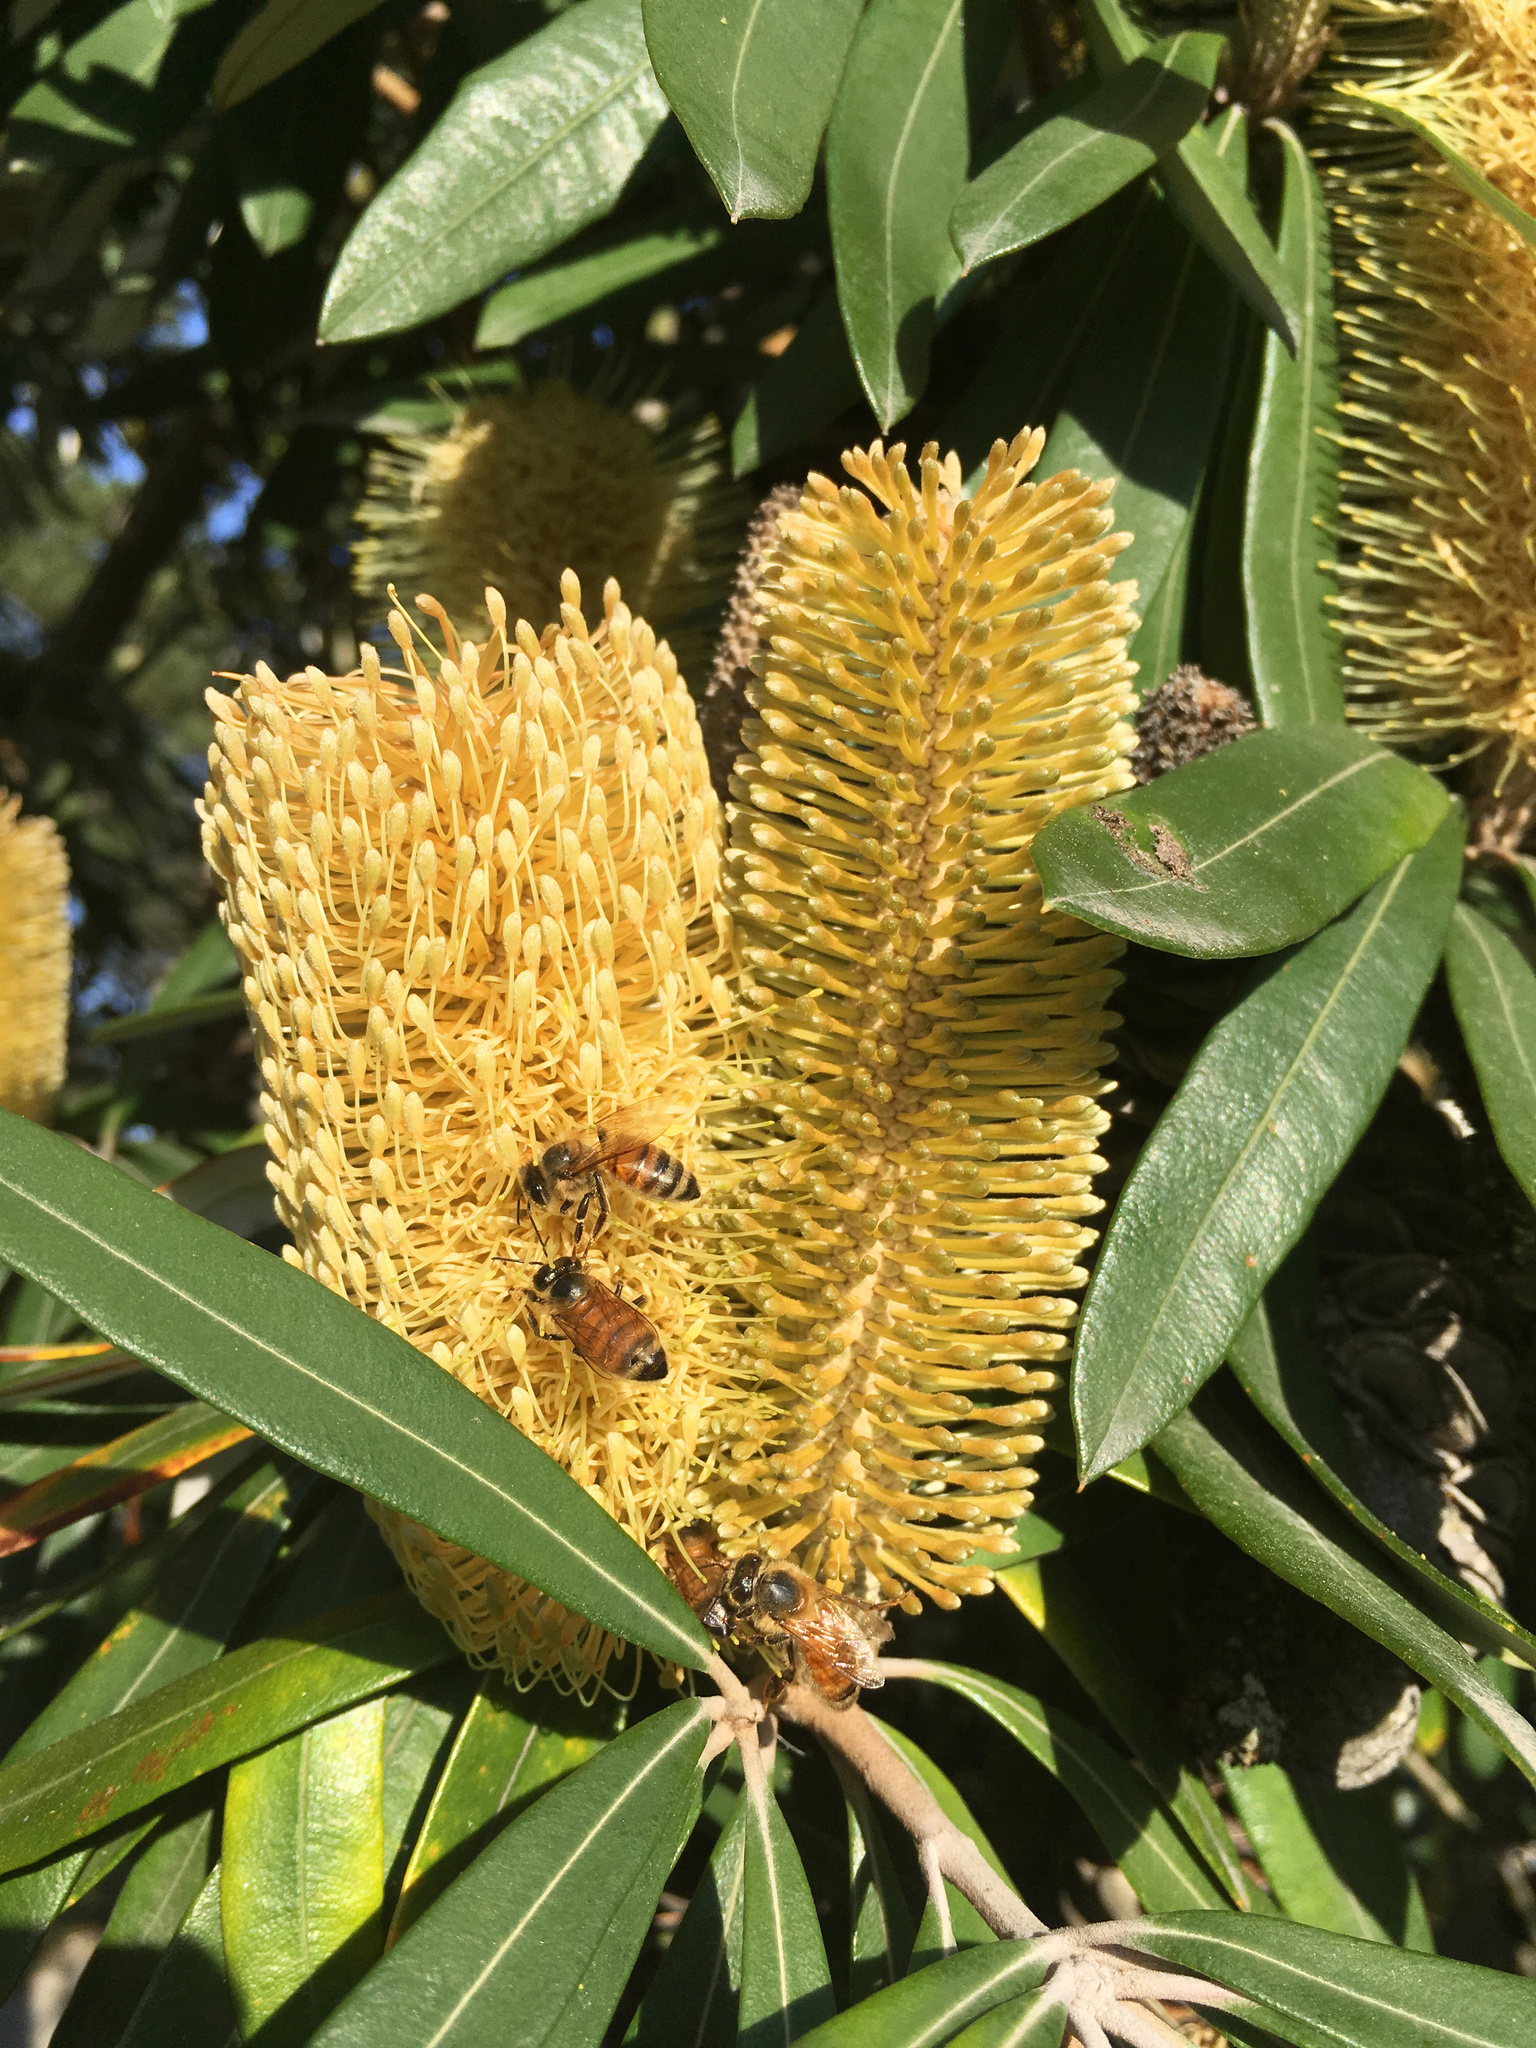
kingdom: Animalia
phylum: Arthropoda
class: Insecta
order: Hymenoptera
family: Apidae
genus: Apis
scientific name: Apis mellifera
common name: Honey bee
